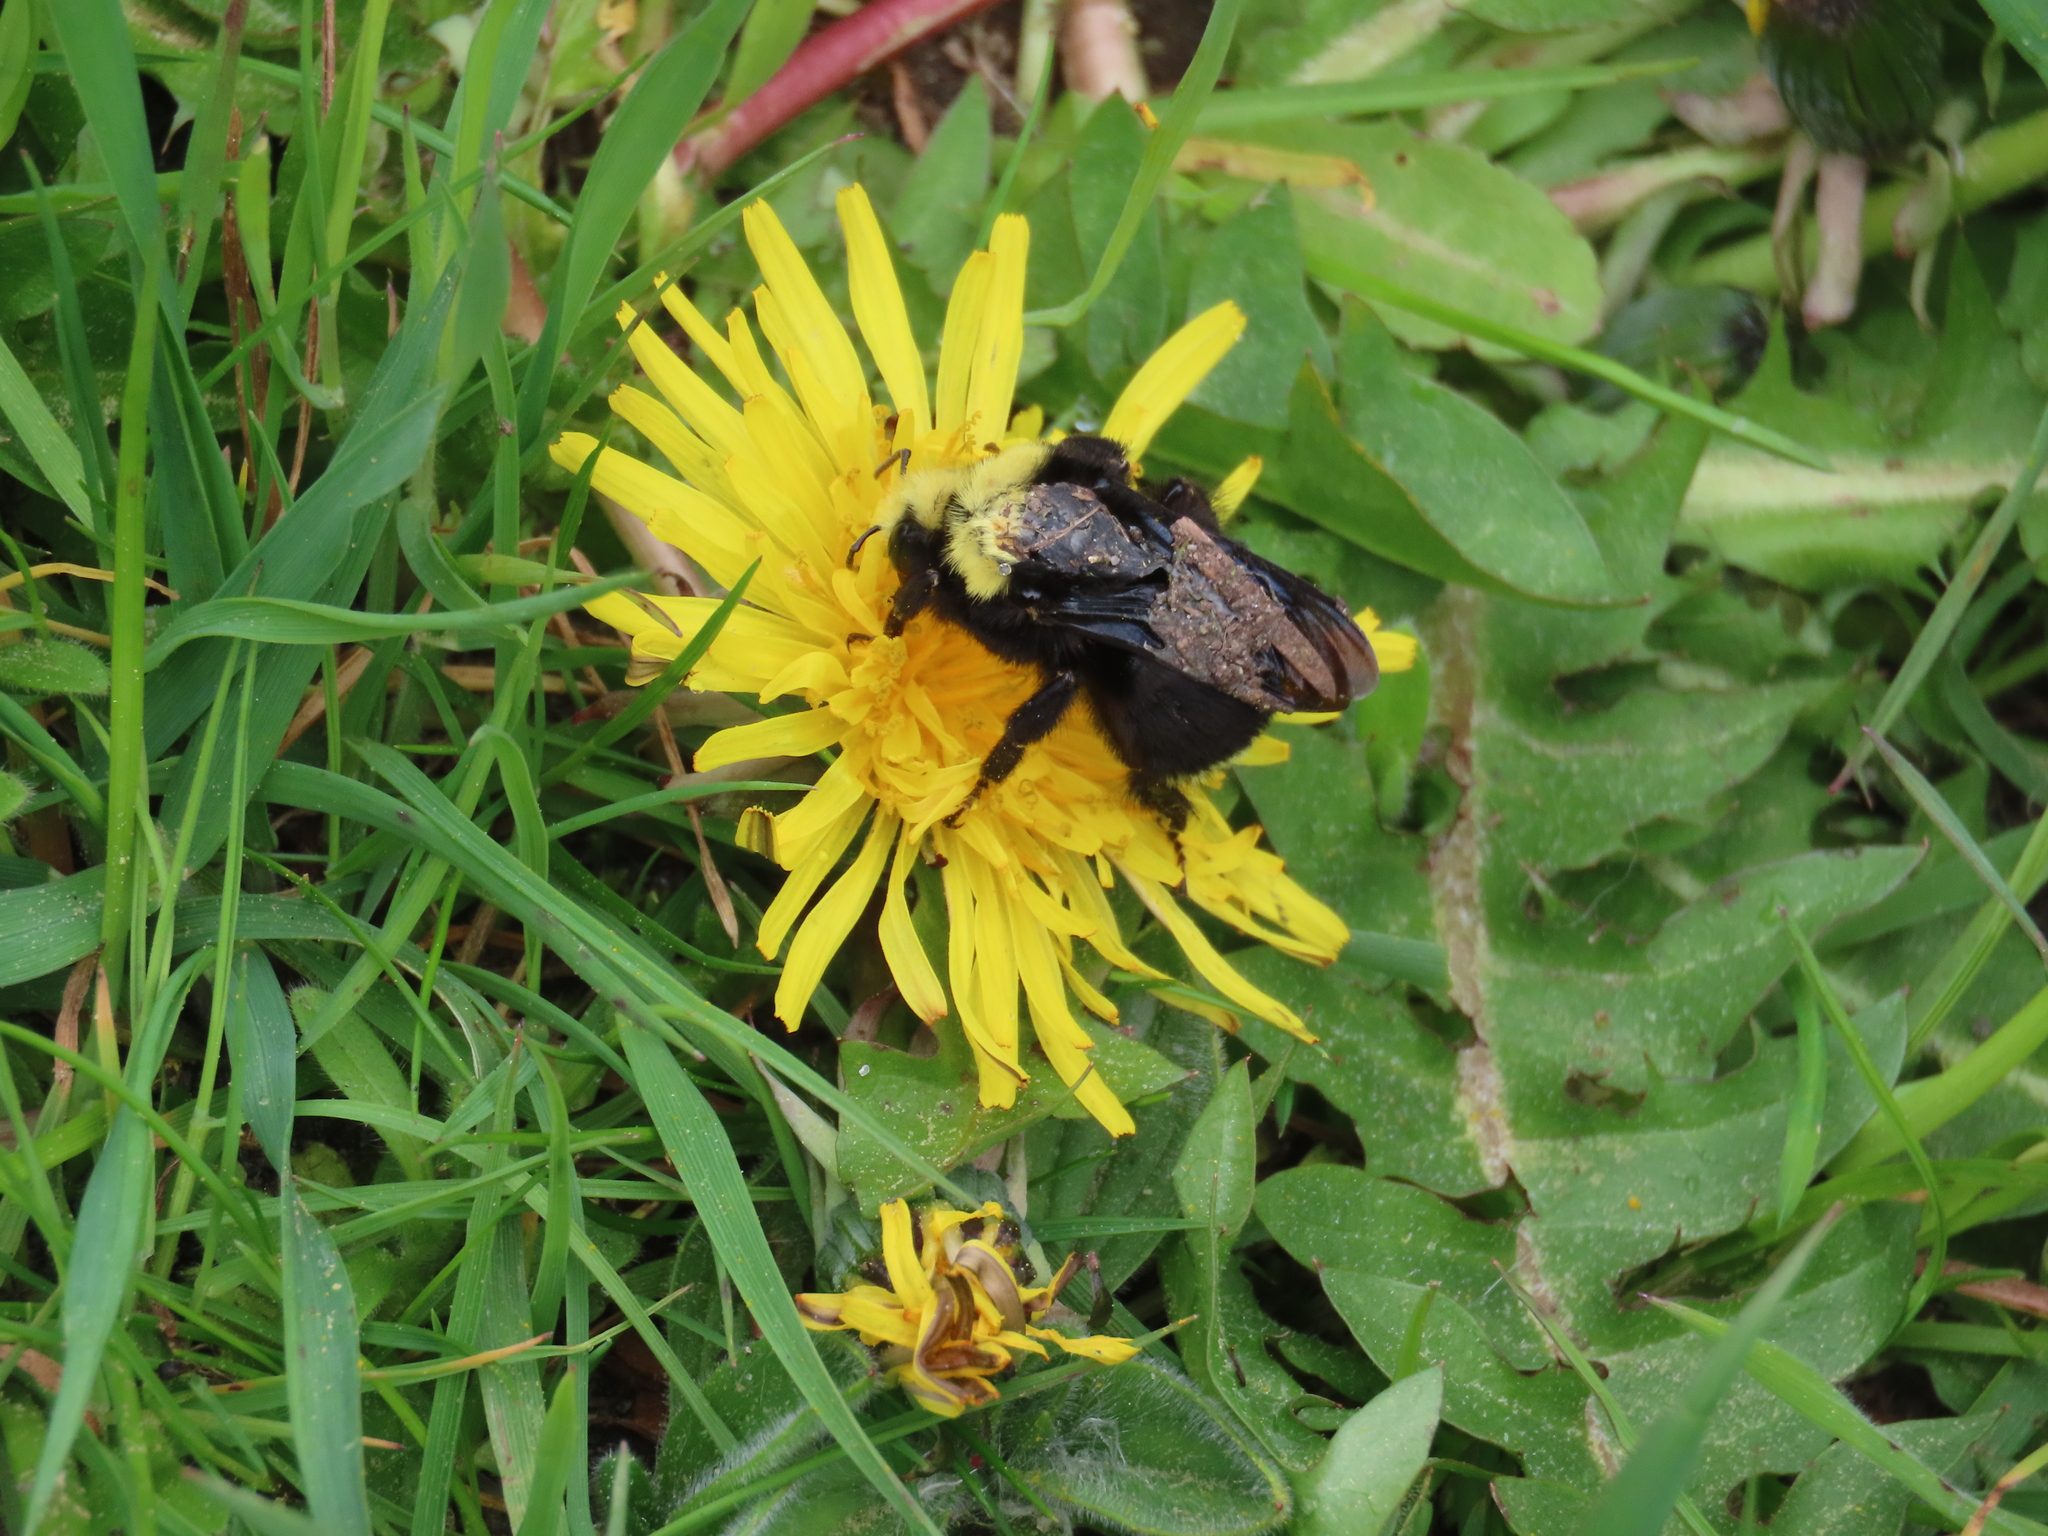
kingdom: Animalia
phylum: Arthropoda
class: Insecta
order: Hymenoptera
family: Apidae
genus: Bombus
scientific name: Bombus vosnesenskii
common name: Vosnesensky bumble bee
